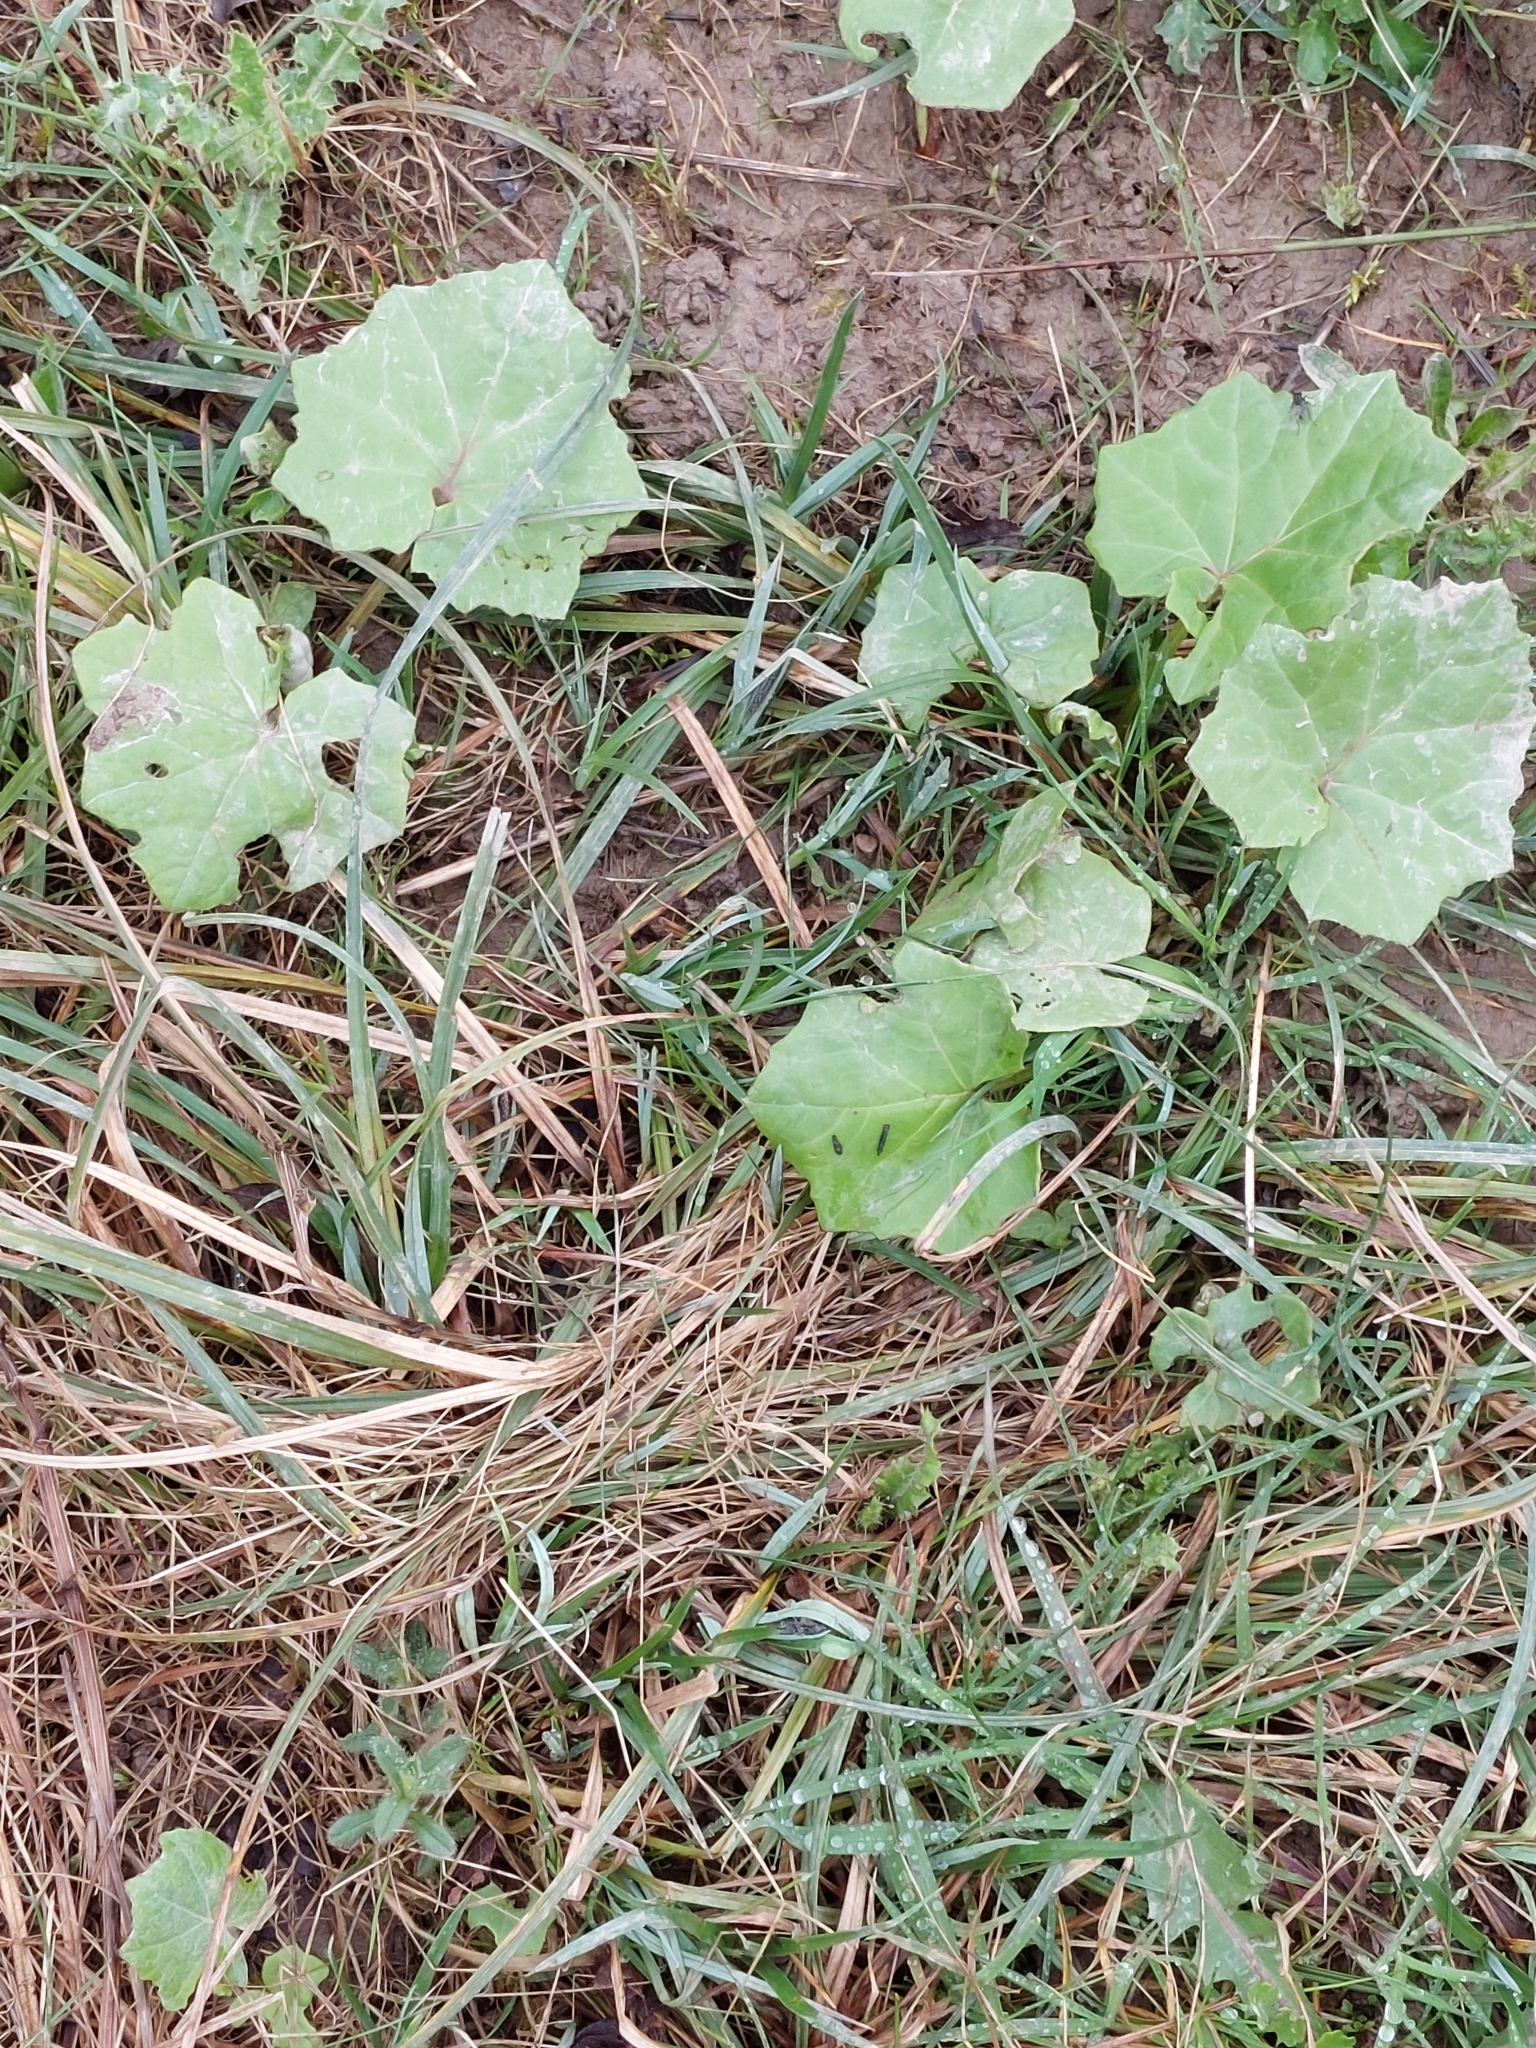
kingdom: Plantae
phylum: Tracheophyta
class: Magnoliopsida
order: Asterales
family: Asteraceae
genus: Tussilago
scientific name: Tussilago farfara
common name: Coltsfoot
